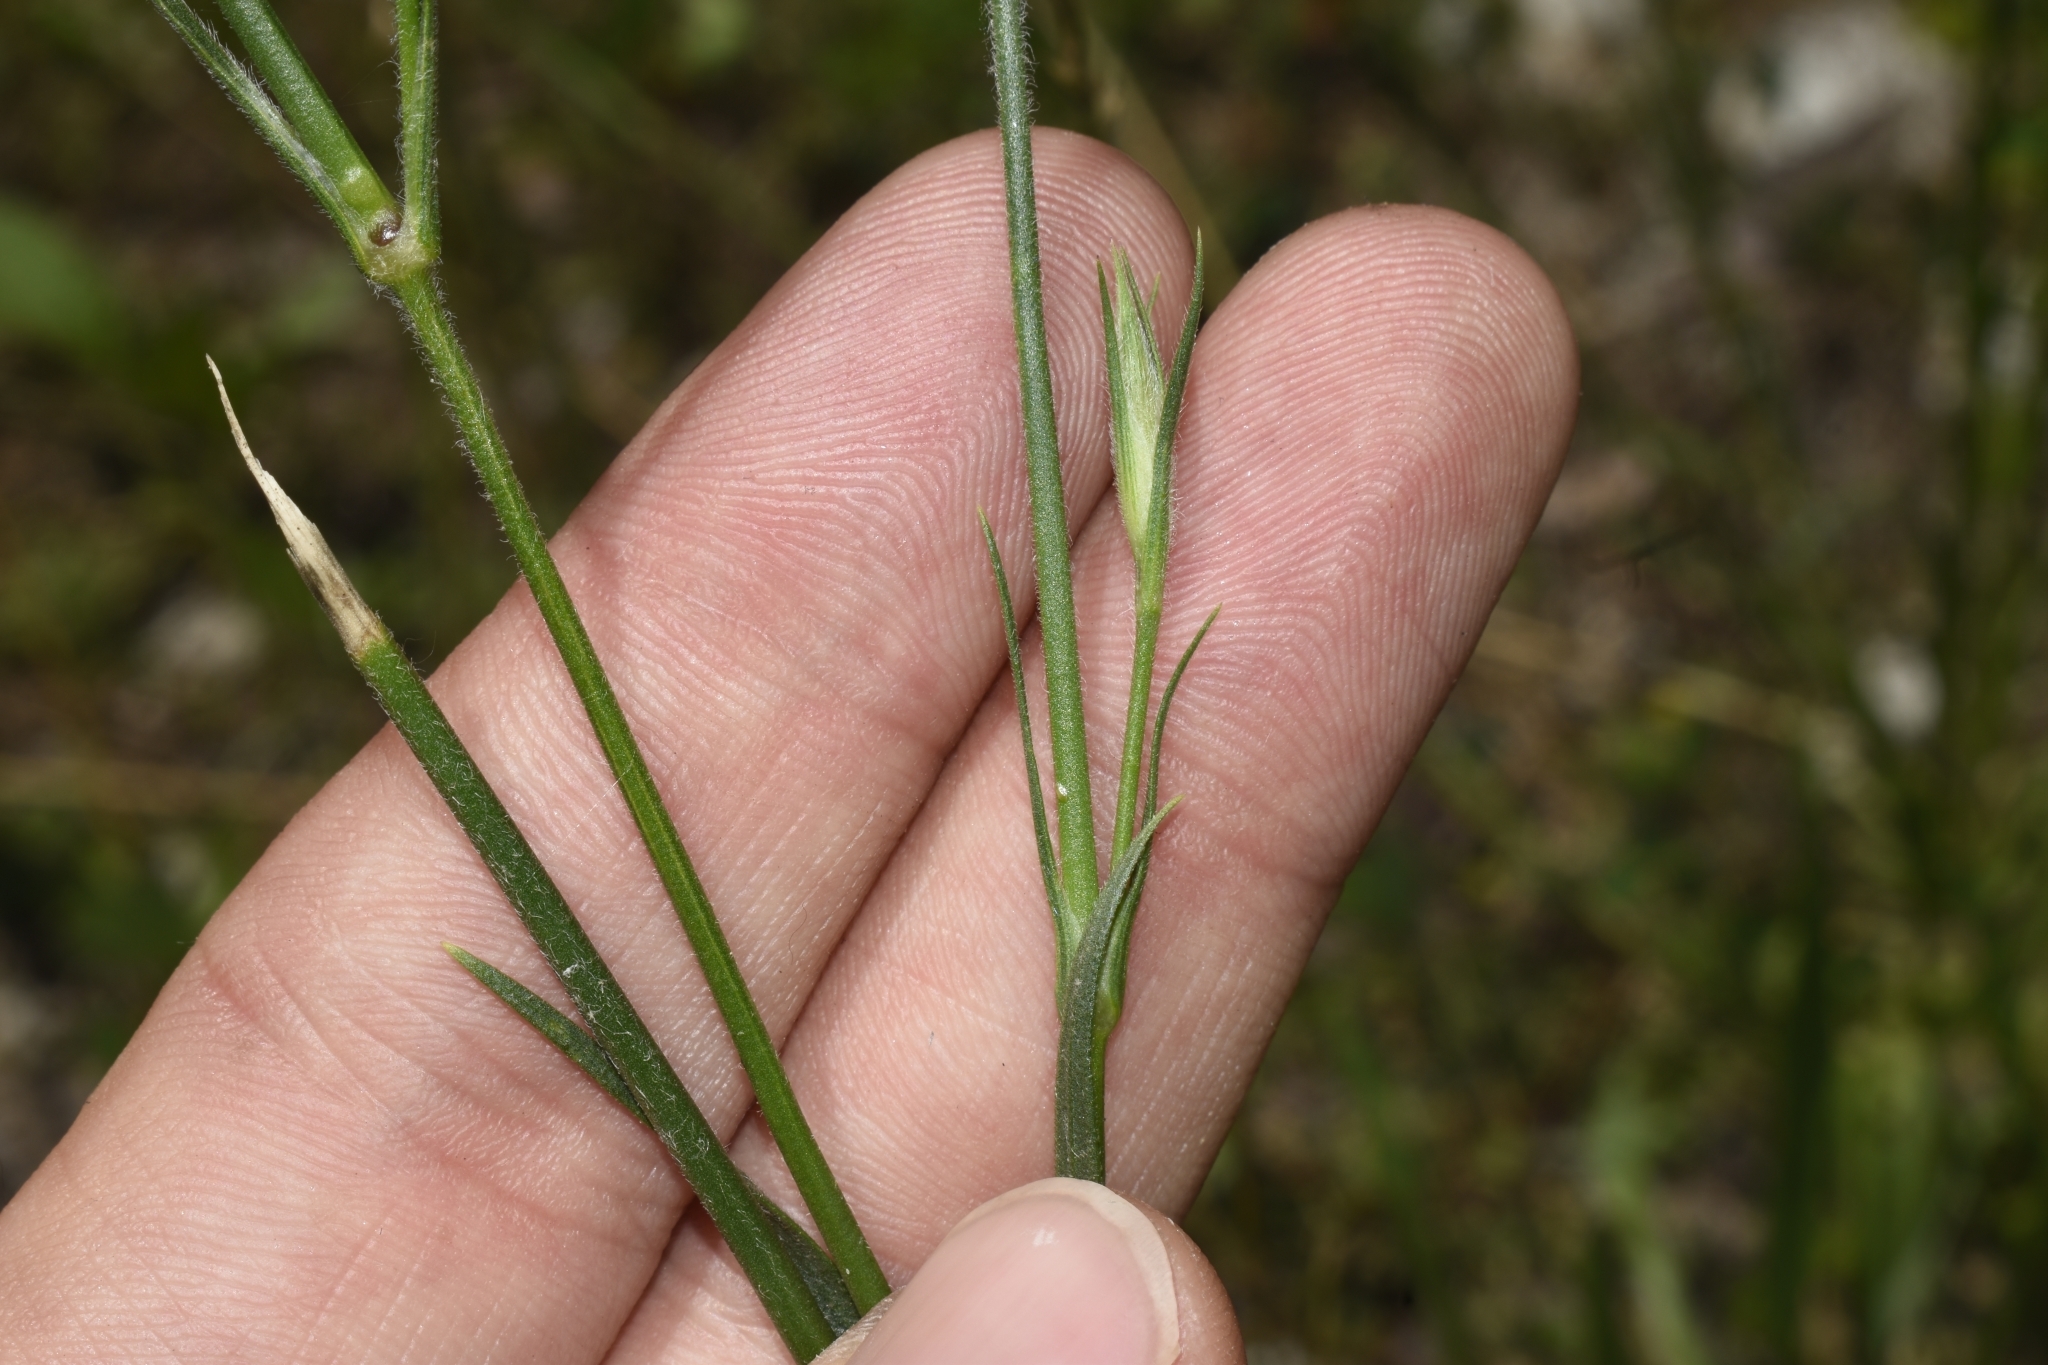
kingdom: Plantae
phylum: Tracheophyta
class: Magnoliopsida
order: Caryophyllales
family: Caryophyllaceae
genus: Dianthus
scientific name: Dianthus armeria
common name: Deptford pink
